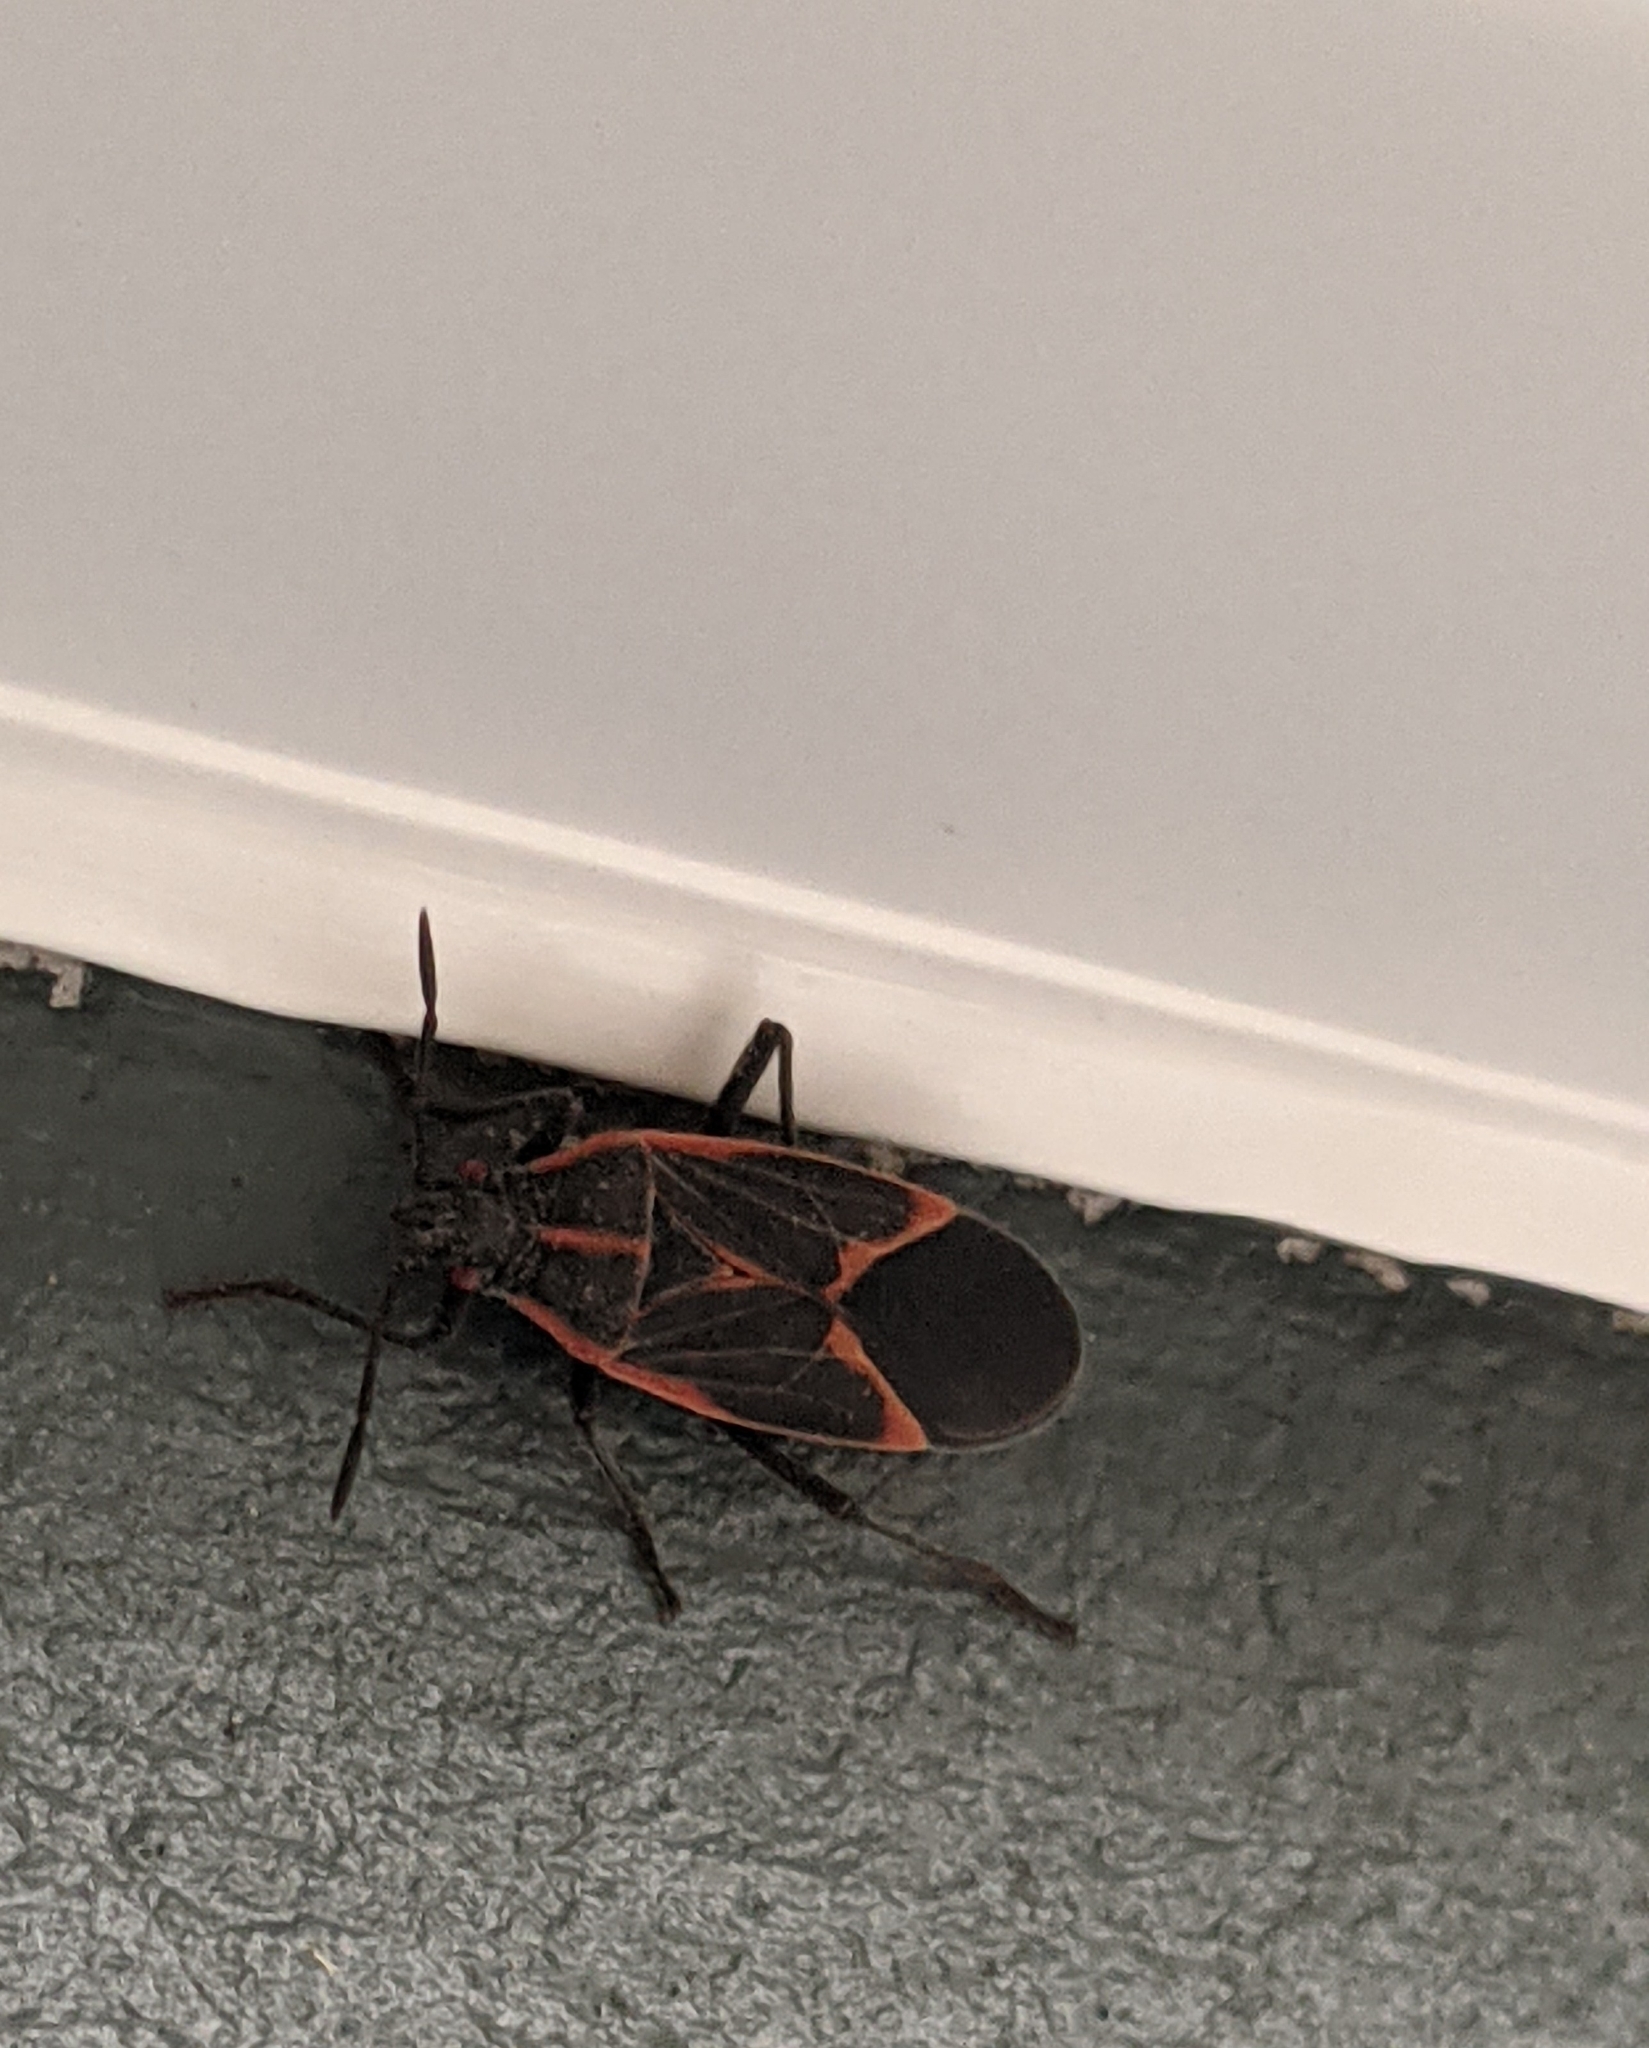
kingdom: Animalia
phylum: Arthropoda
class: Insecta
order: Hemiptera
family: Rhopalidae
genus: Boisea
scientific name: Boisea trivittata
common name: Boxelder bug
